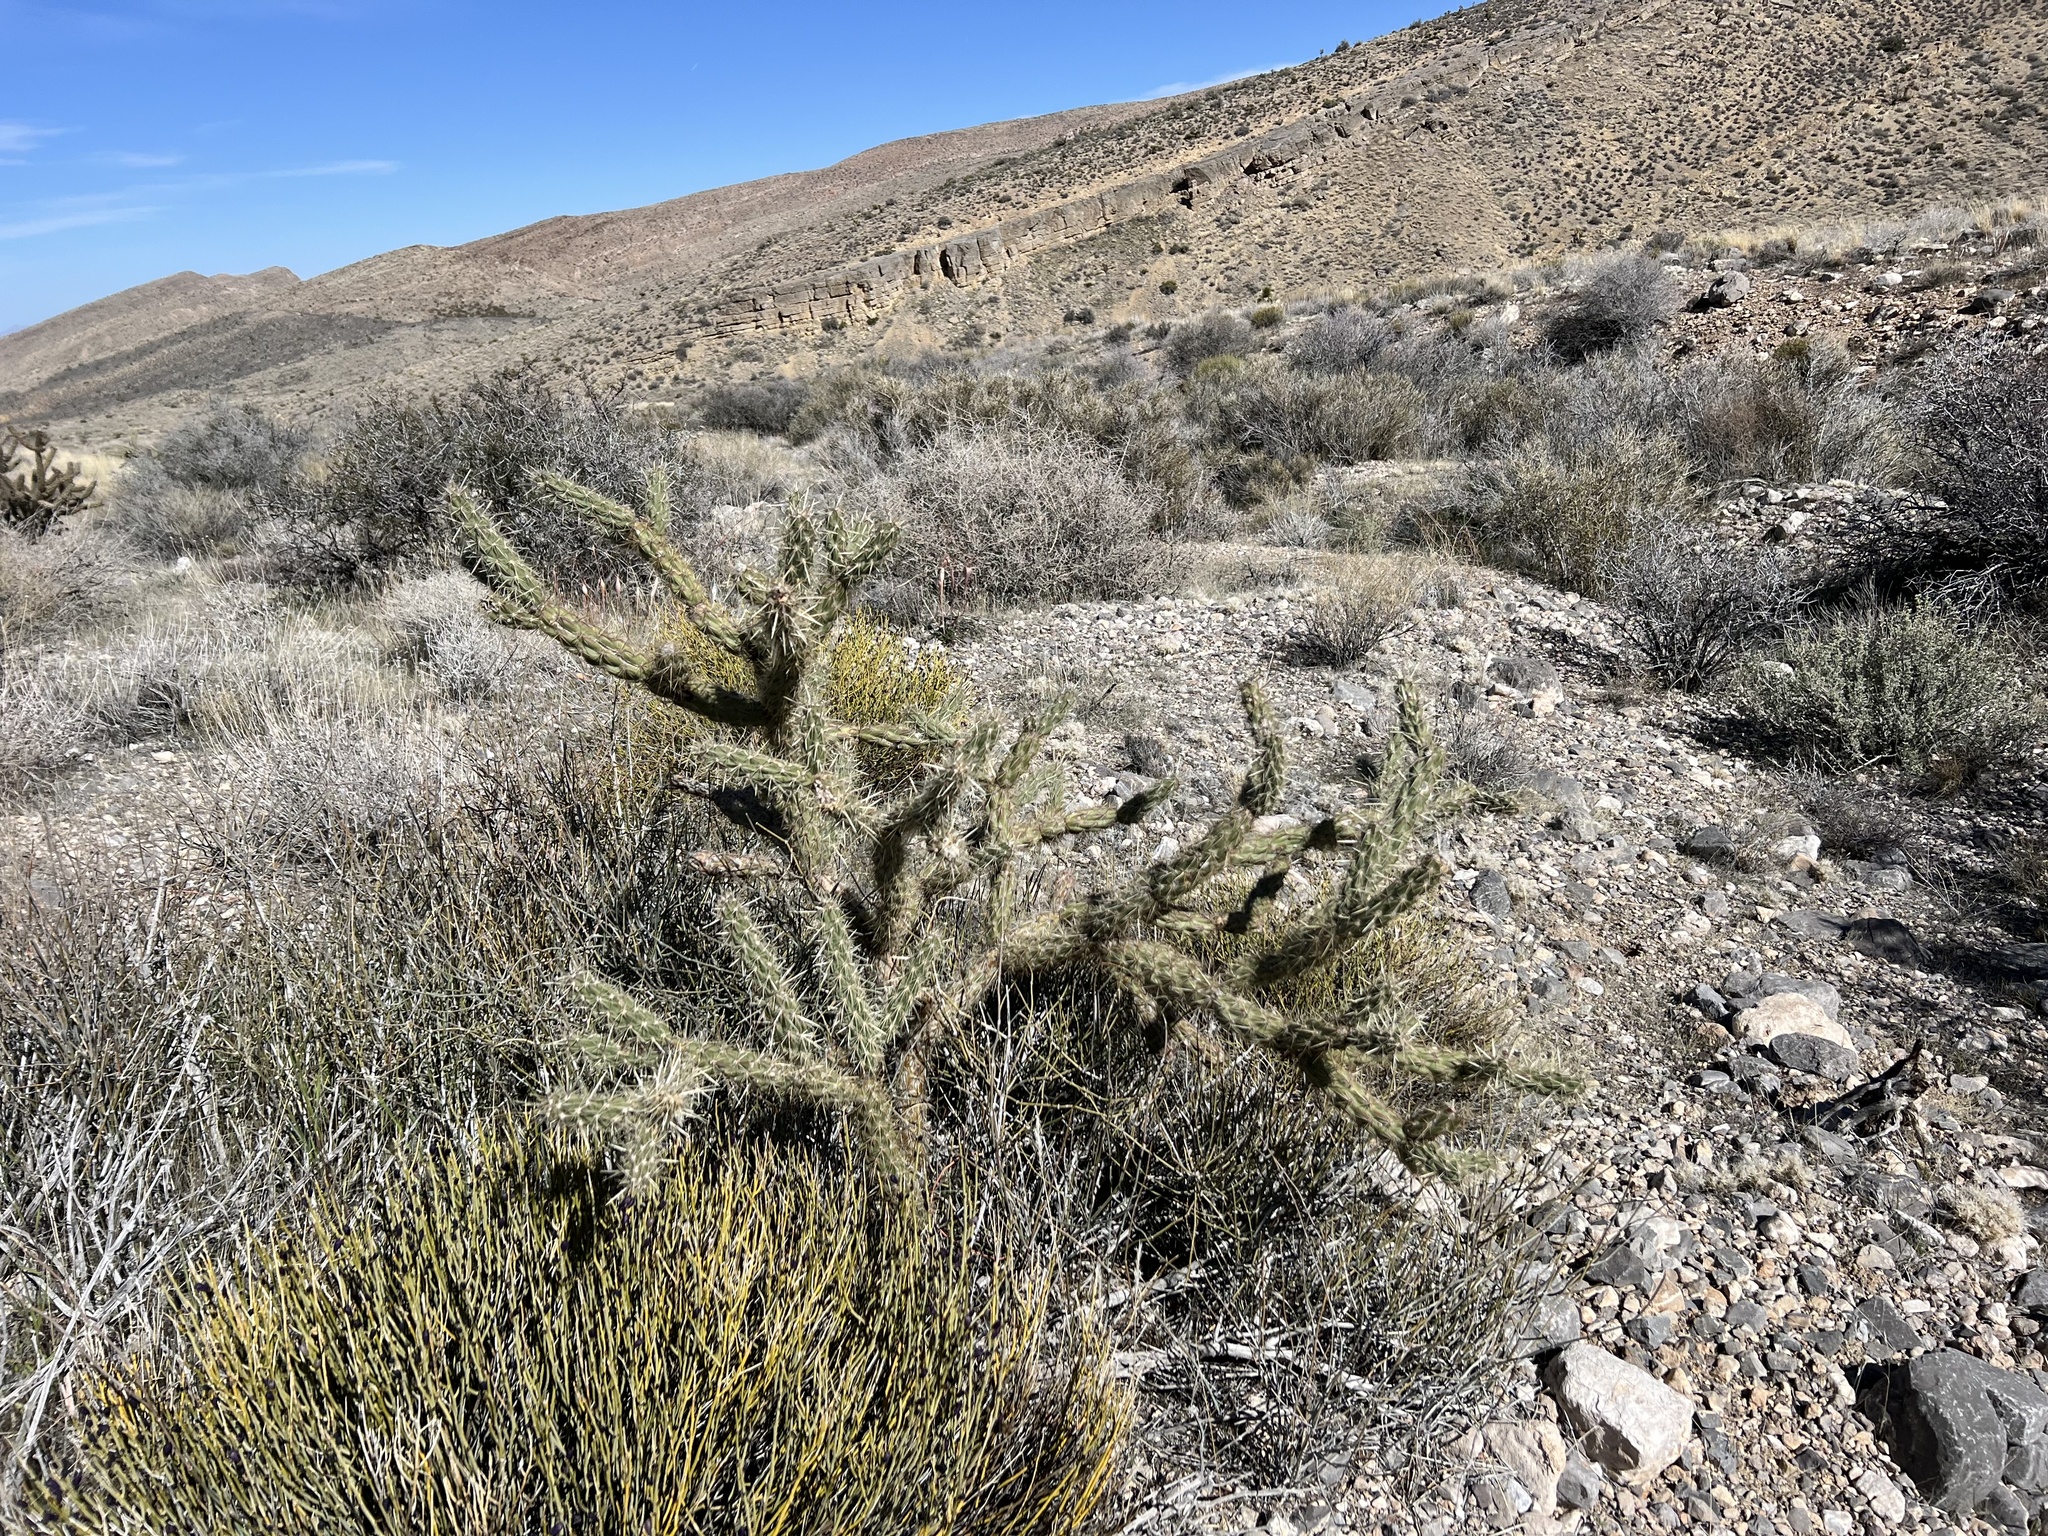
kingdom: Plantae
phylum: Tracheophyta
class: Magnoliopsida
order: Caryophyllales
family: Cactaceae
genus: Cylindropuntia
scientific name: Cylindropuntia acanthocarpa
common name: Buckhorn cholla
